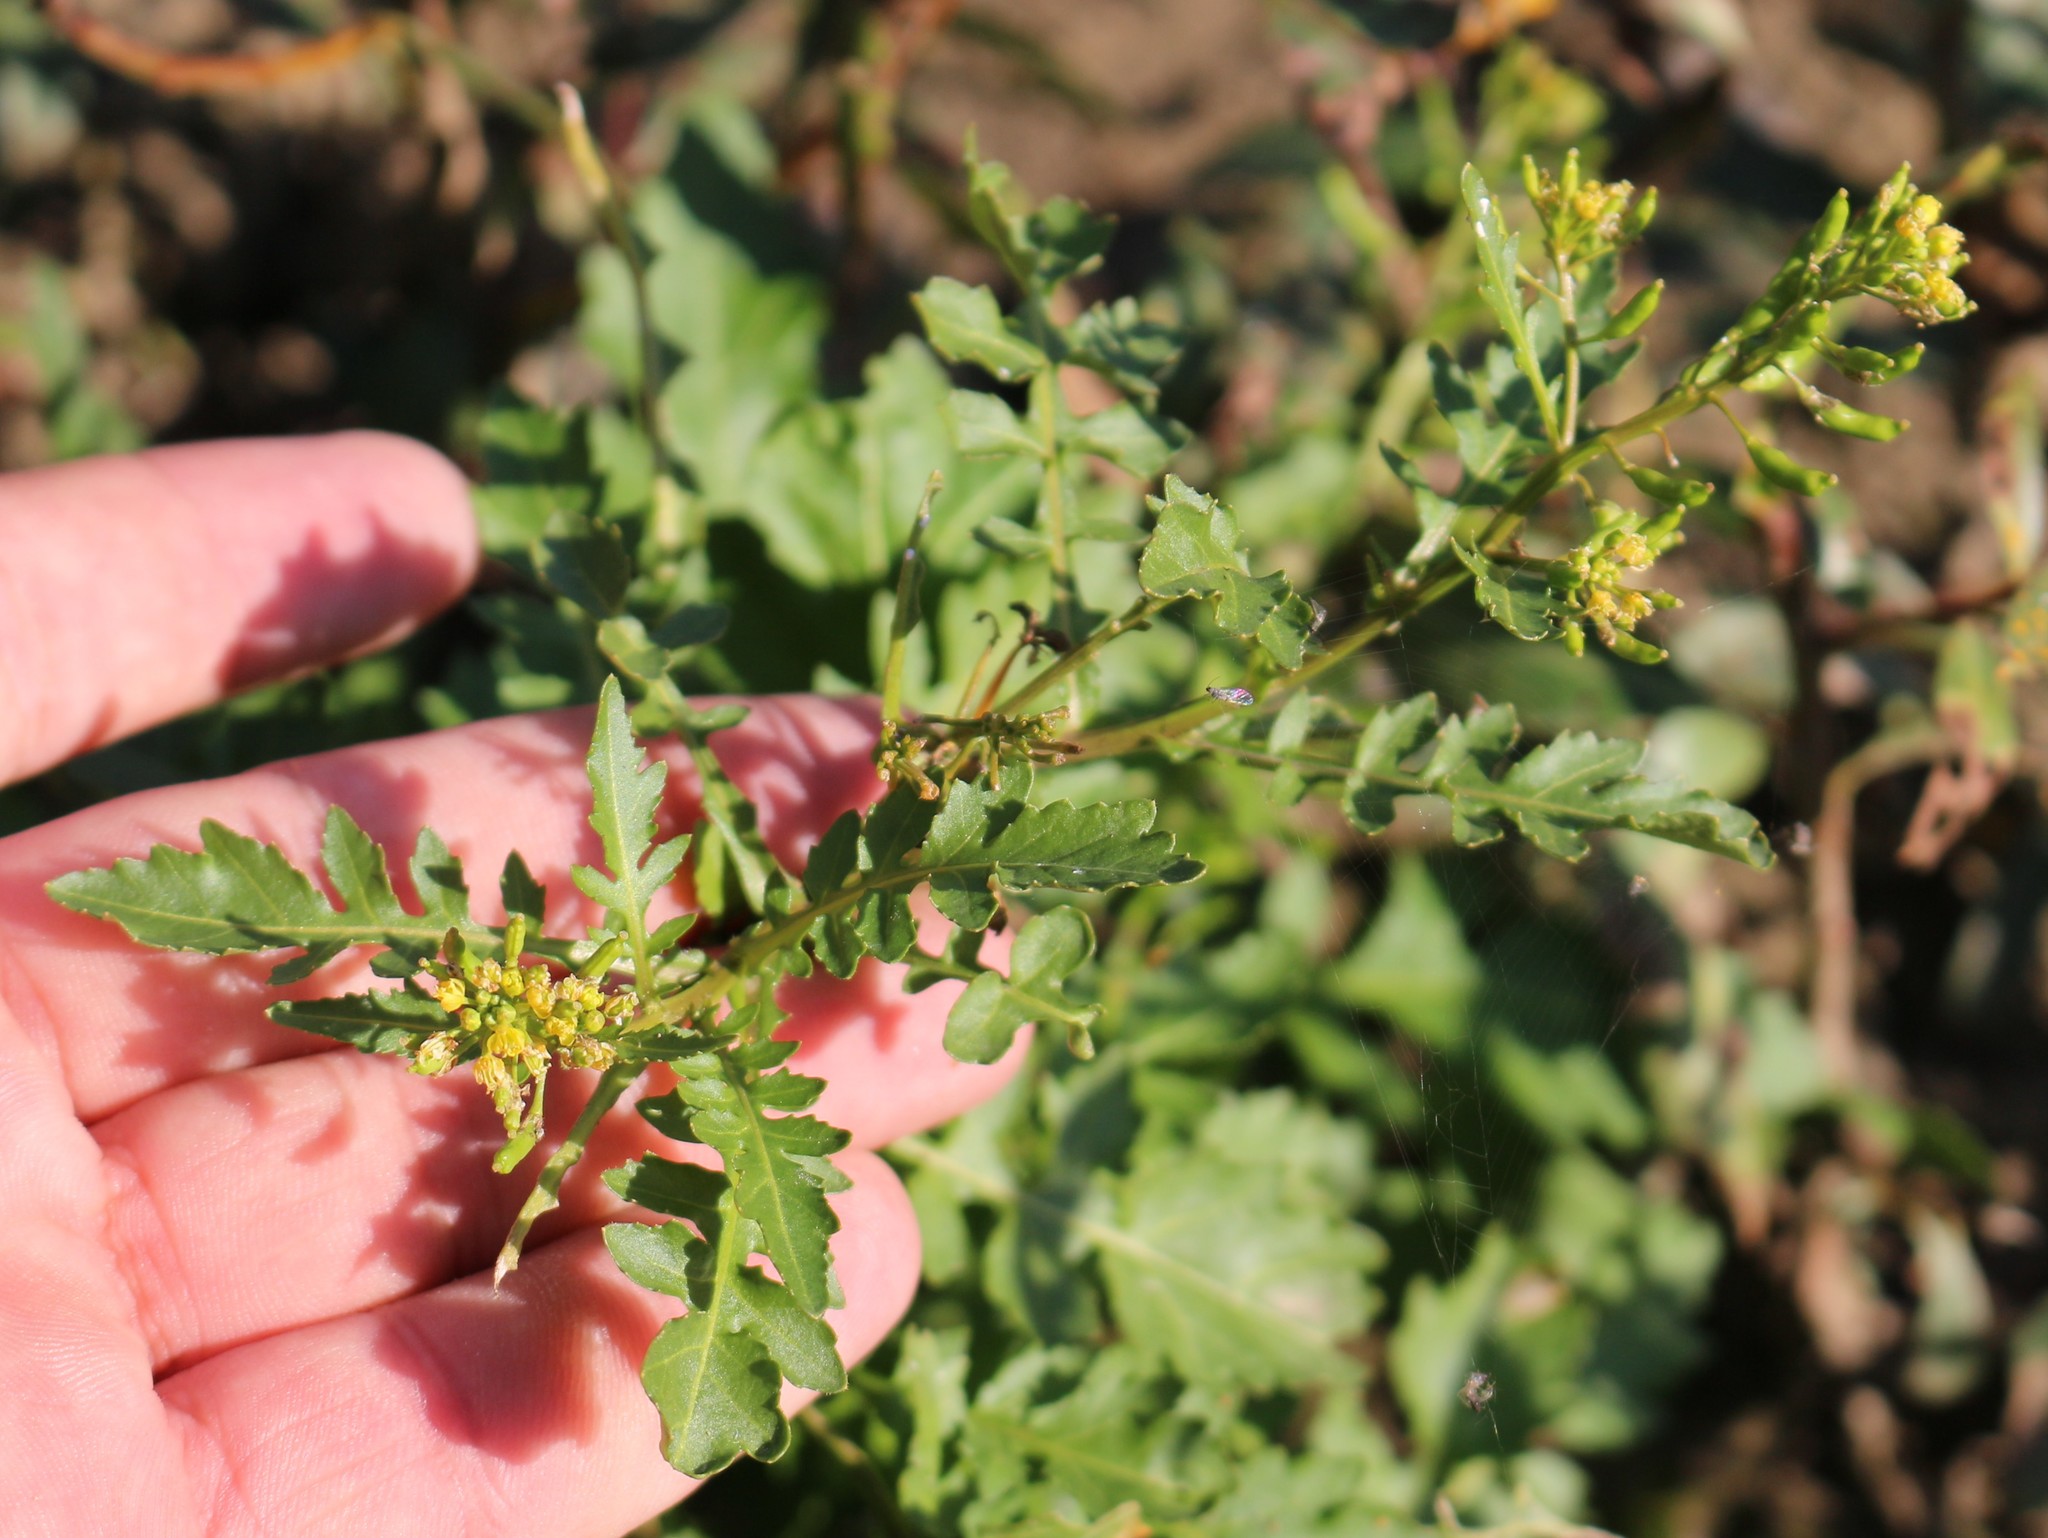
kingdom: Plantae
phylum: Tracheophyta
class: Magnoliopsida
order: Brassicales
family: Brassicaceae
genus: Rorippa
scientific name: Rorippa palustris
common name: Marsh yellow-cress
